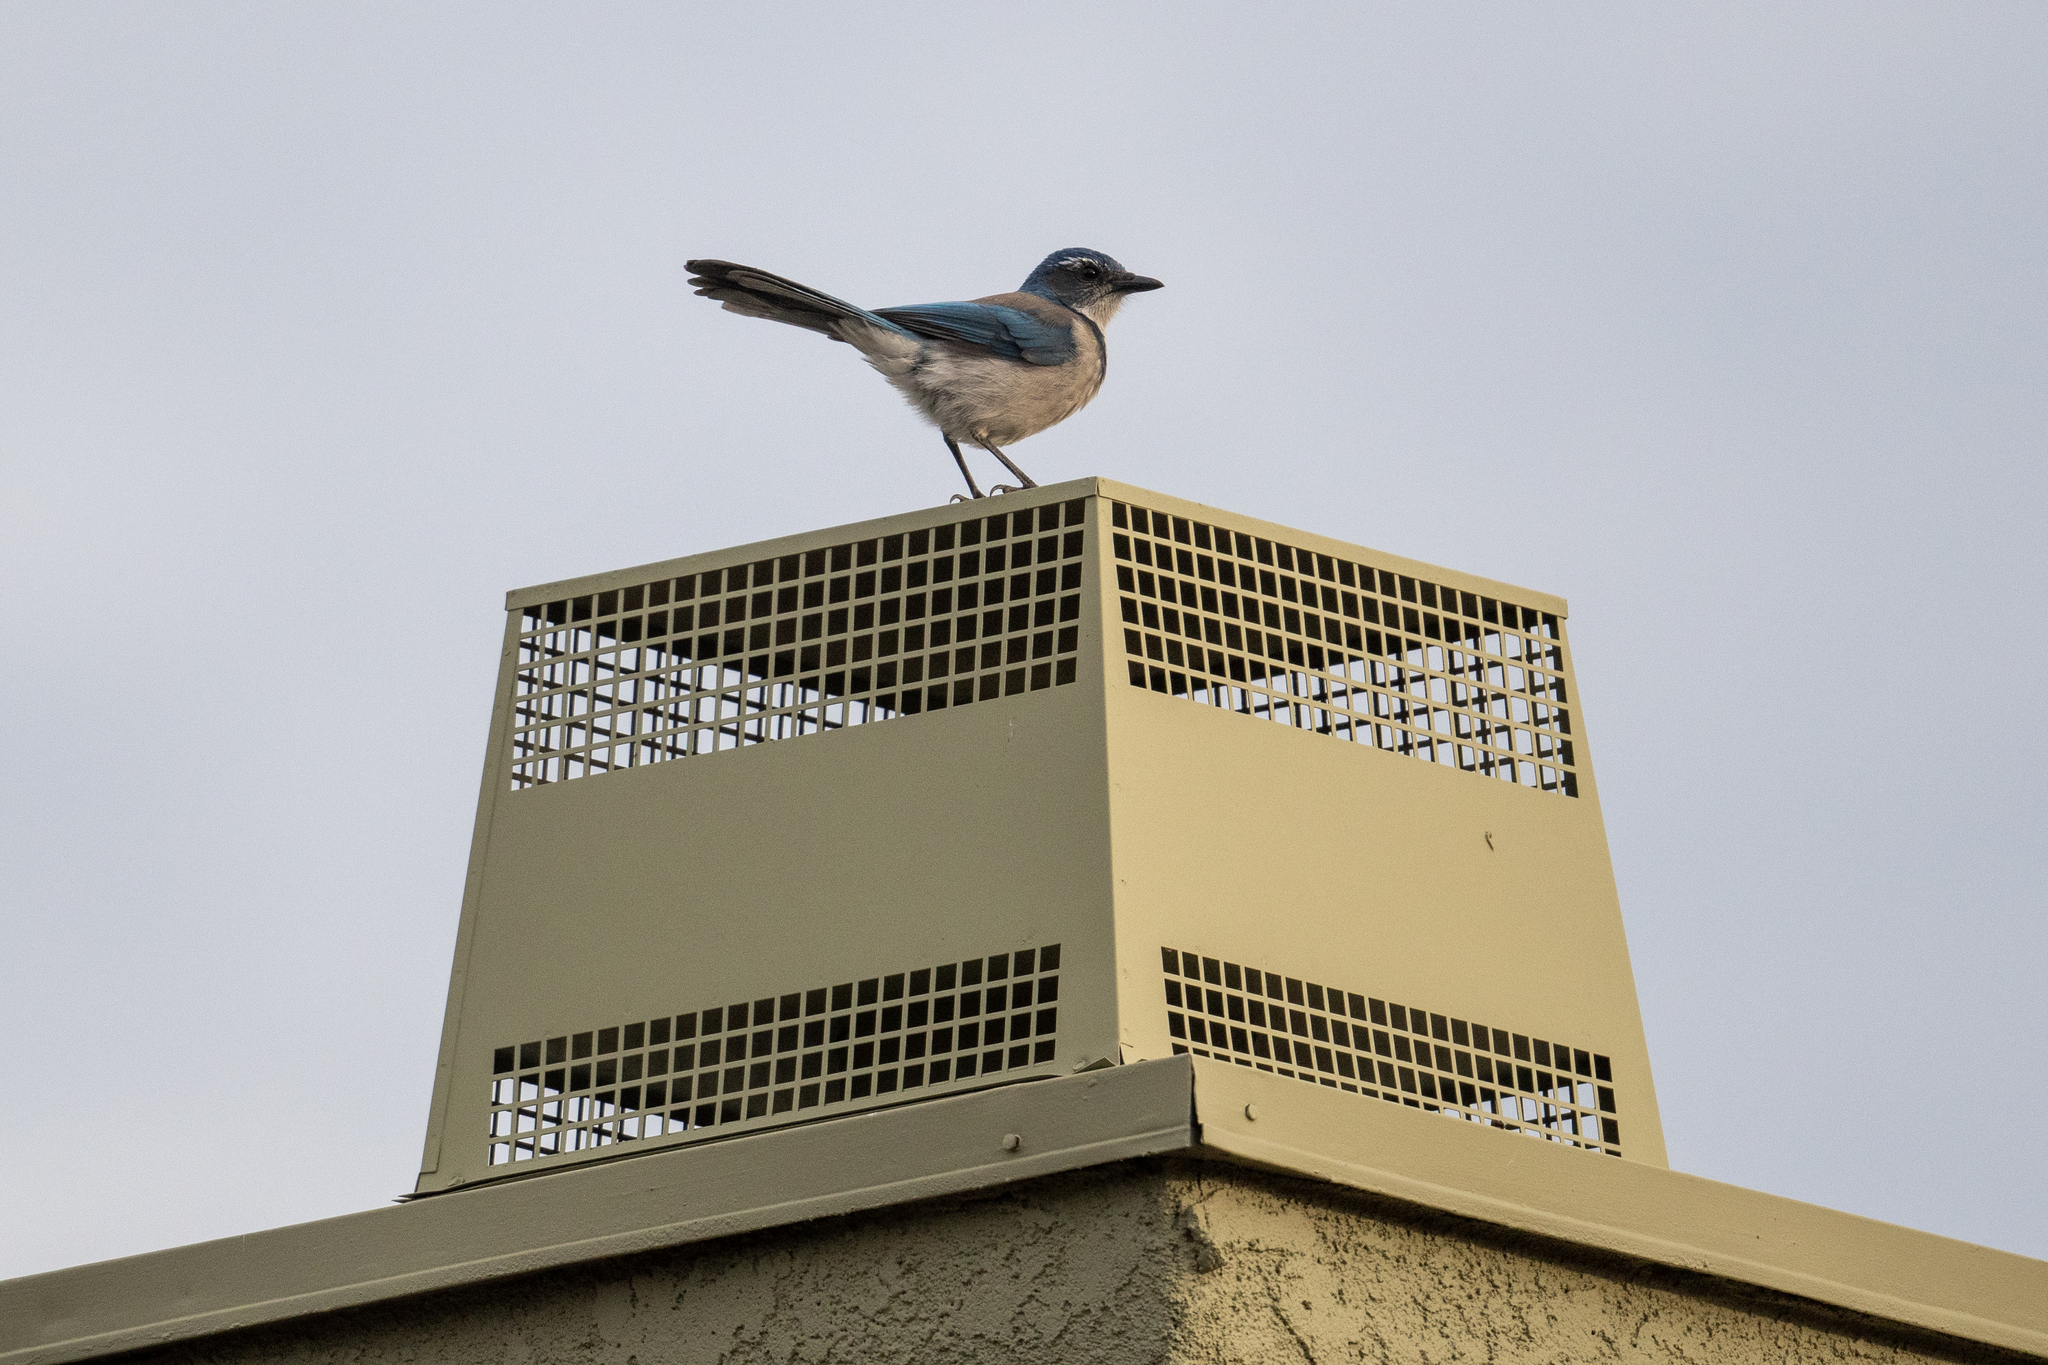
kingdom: Animalia
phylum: Chordata
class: Aves
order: Passeriformes
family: Corvidae
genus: Aphelocoma
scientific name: Aphelocoma californica
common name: California scrub-jay
